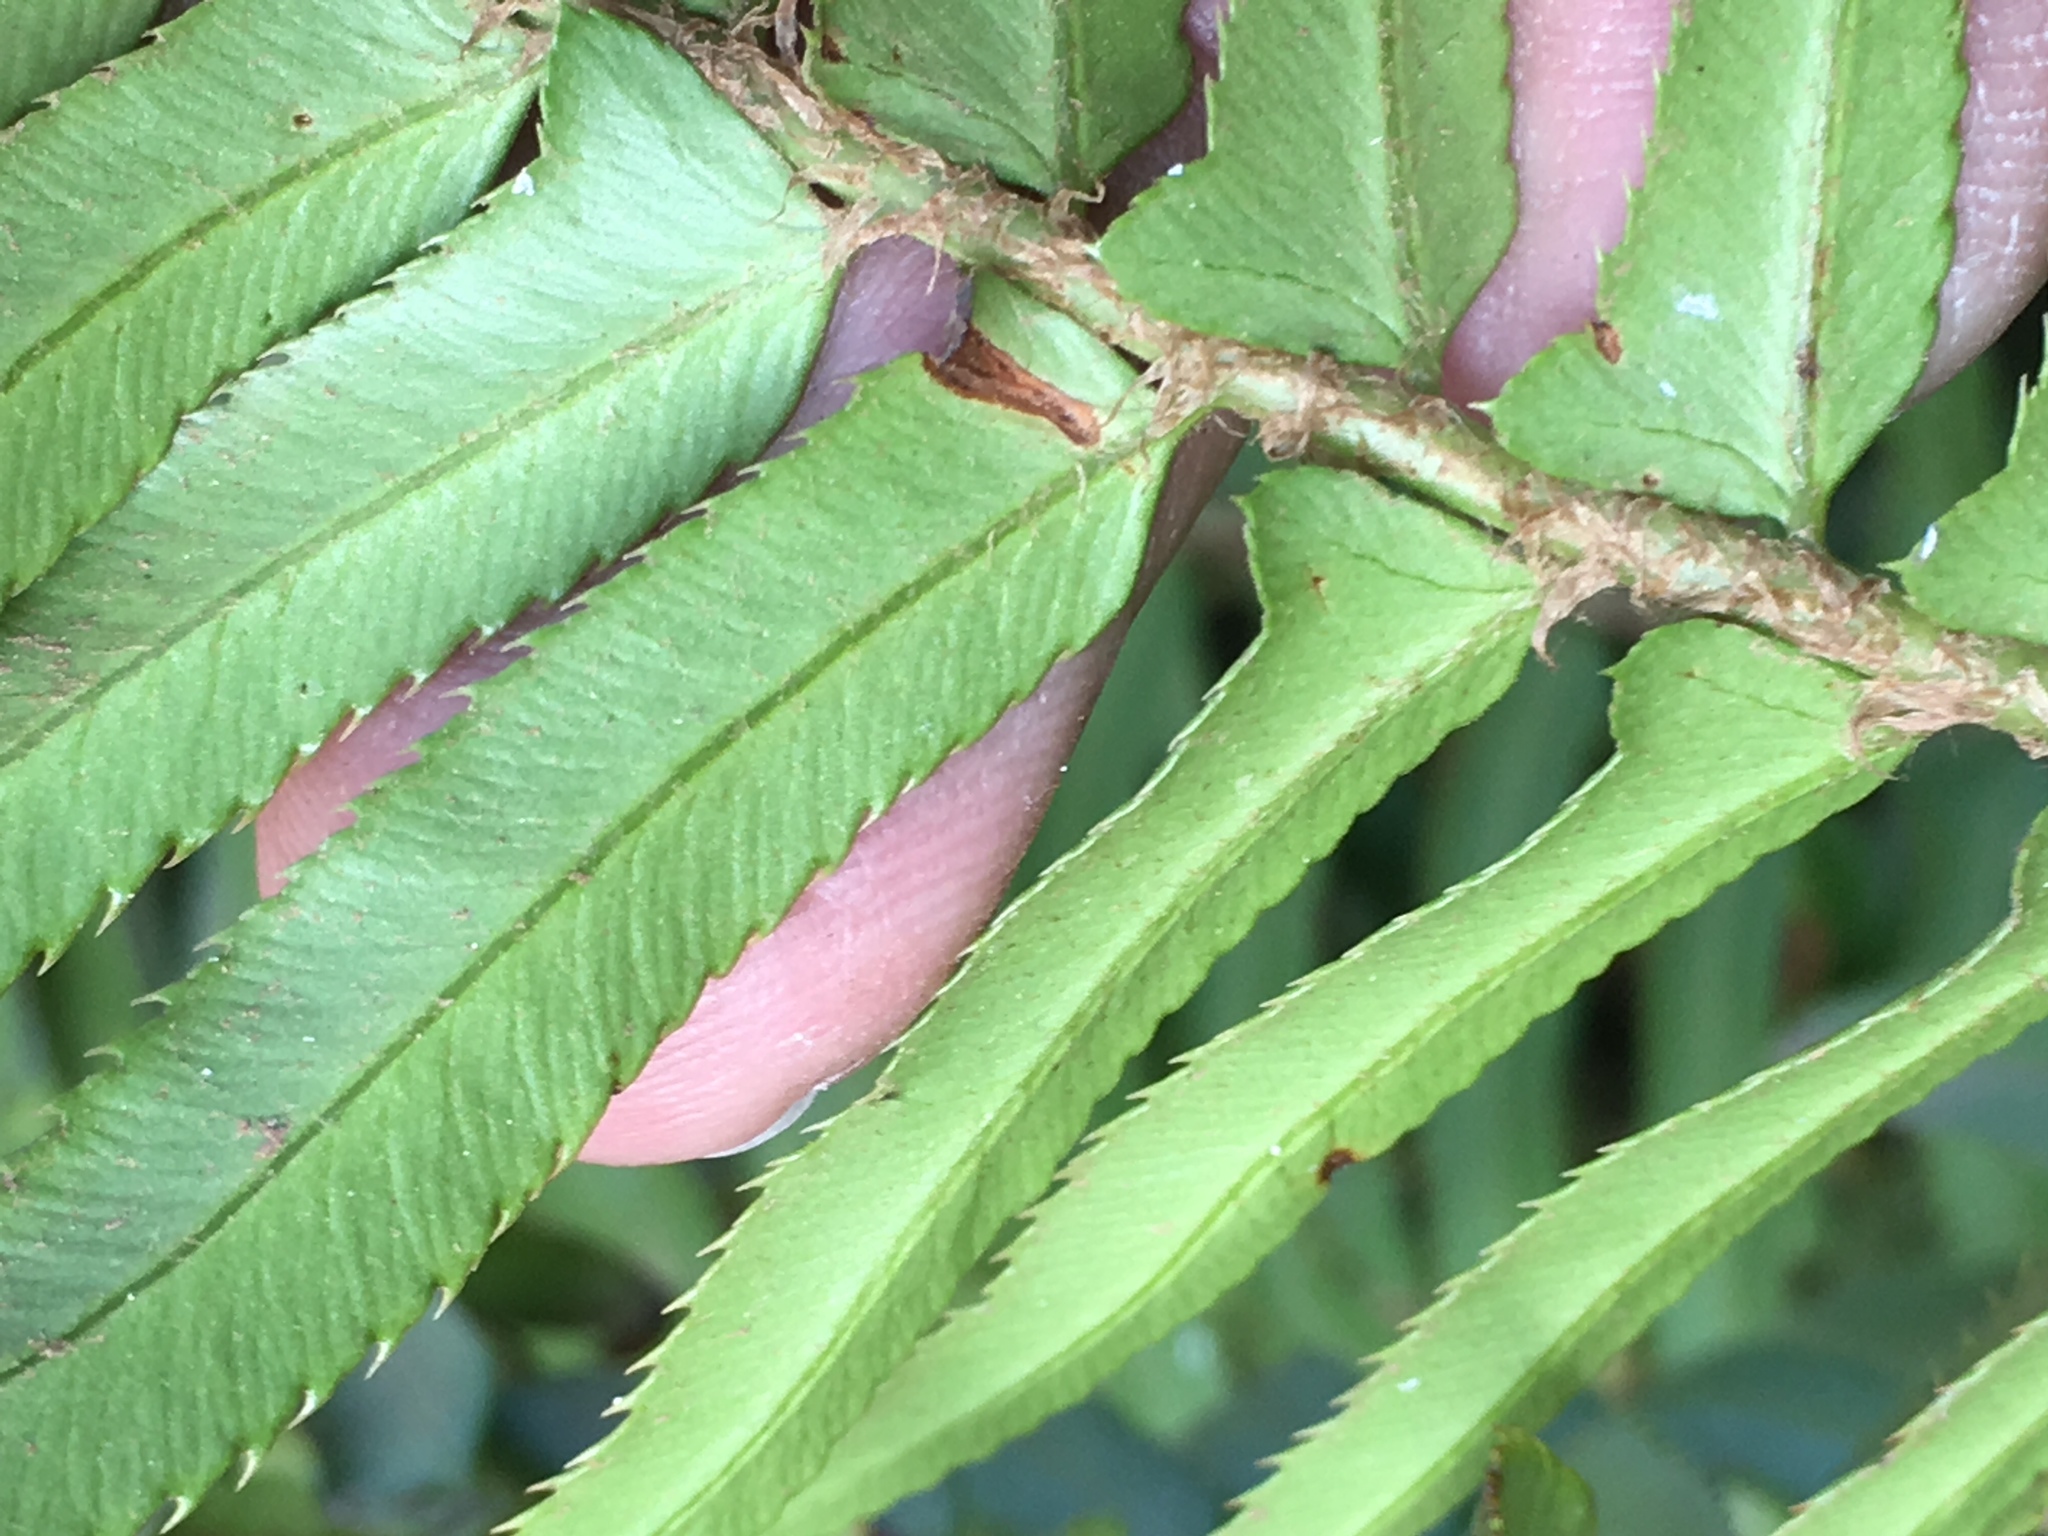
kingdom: Plantae
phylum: Tracheophyta
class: Polypodiopsida
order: Polypodiales
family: Dryopteridaceae
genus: Polystichum
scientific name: Polystichum munitum
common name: Western sword-fern
